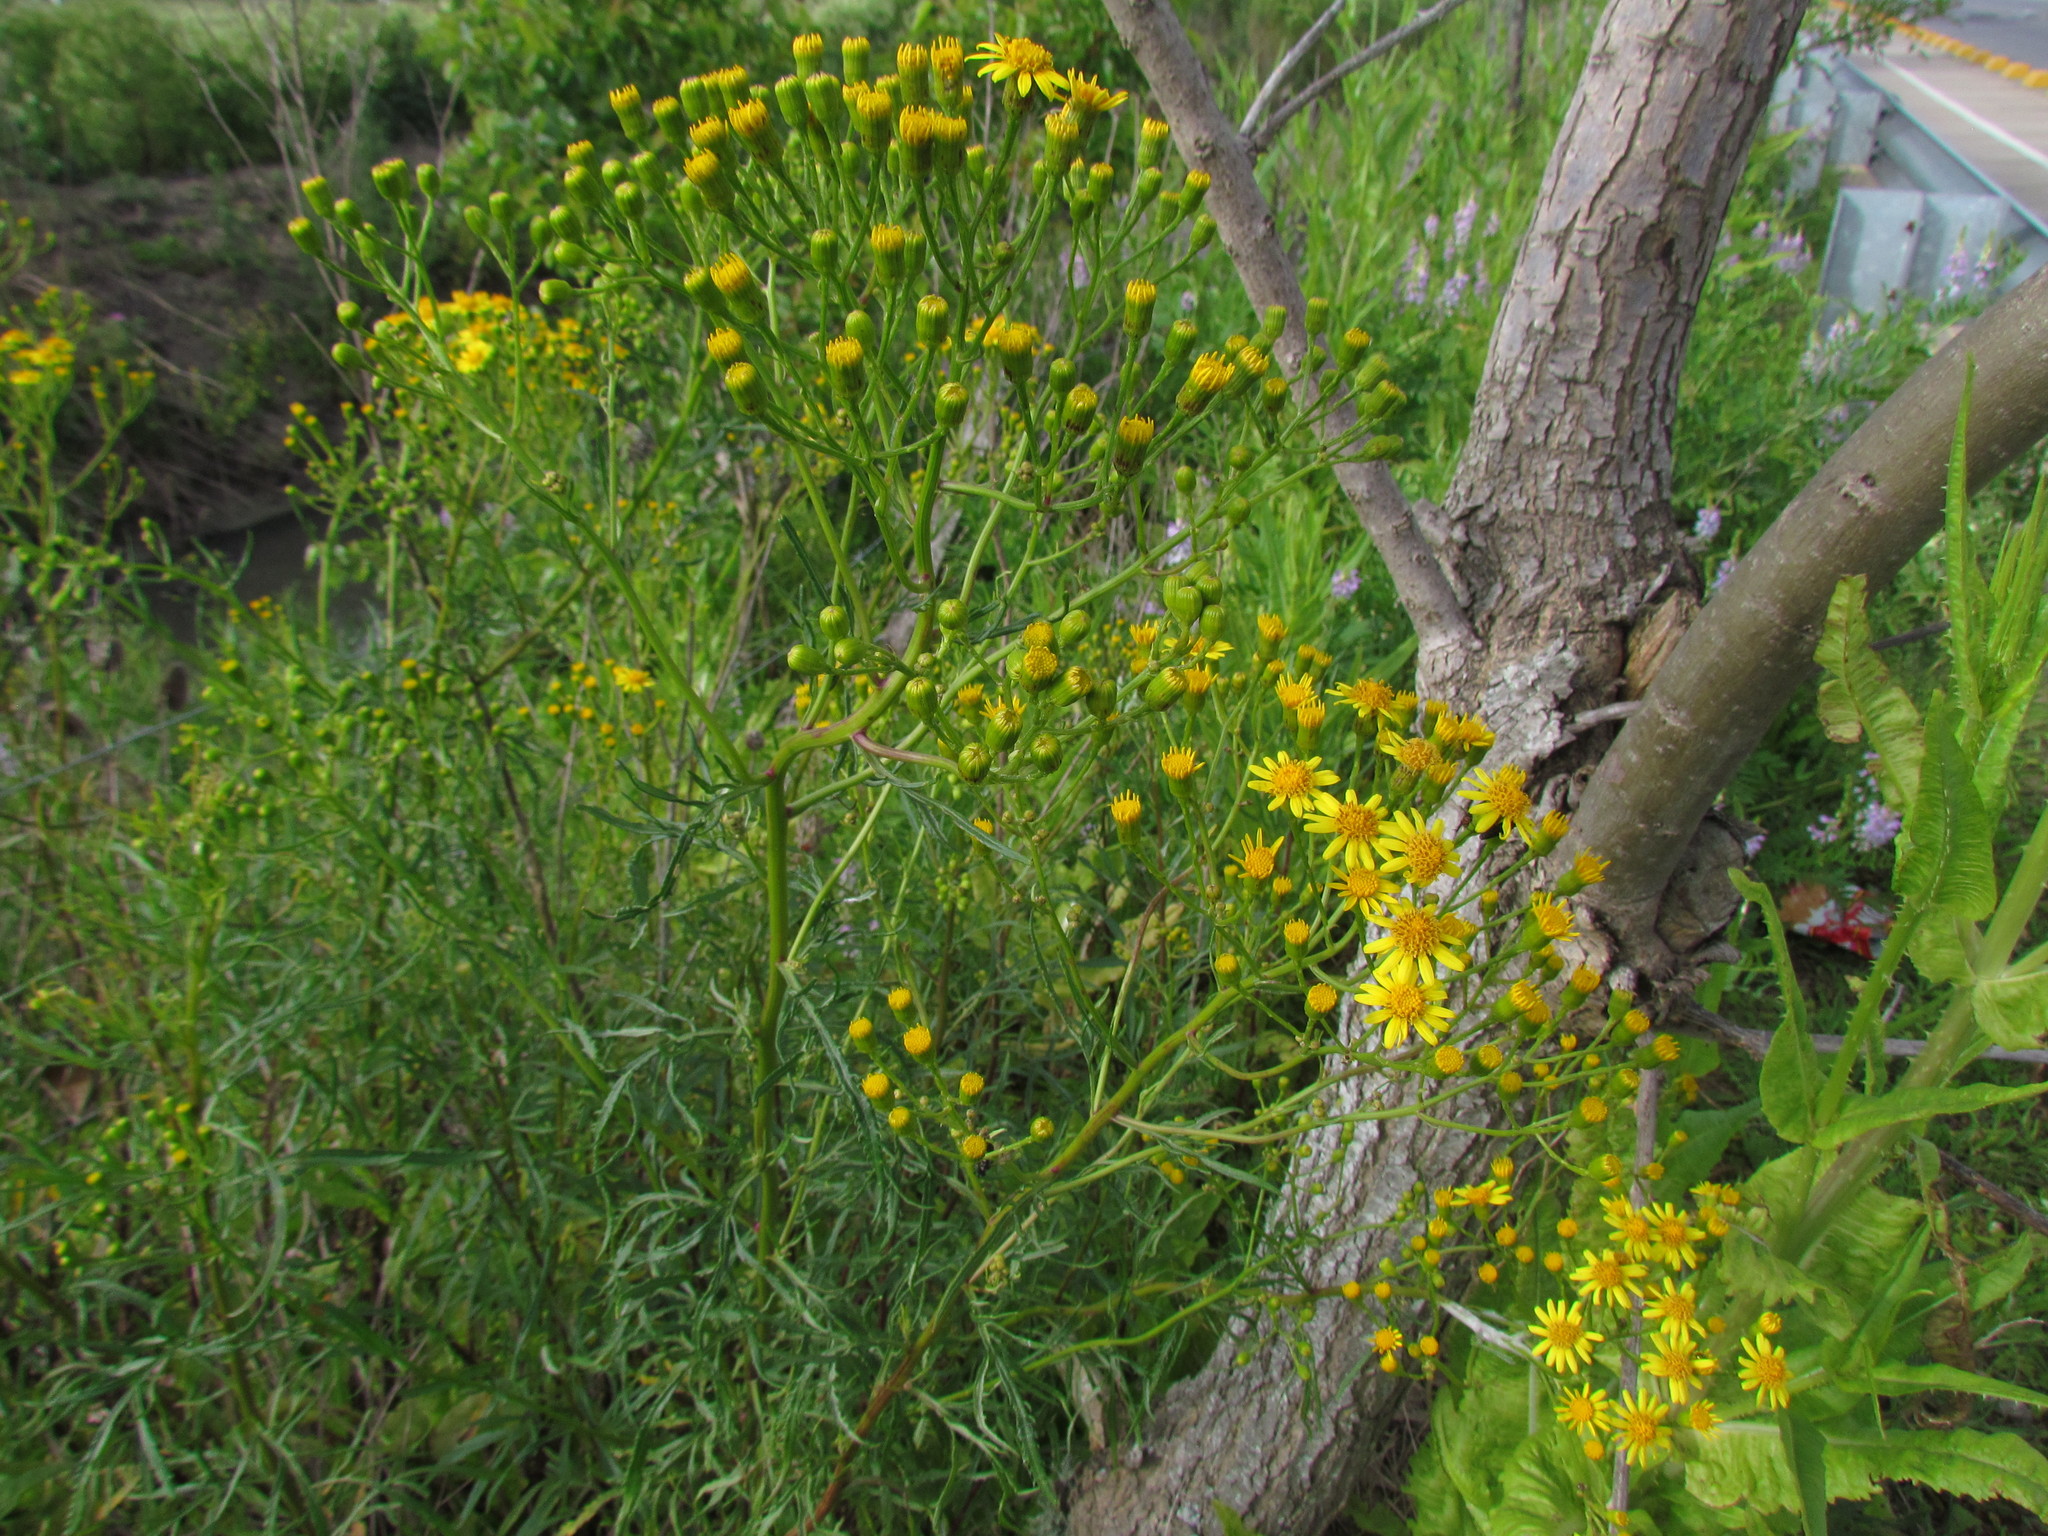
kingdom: Plantae
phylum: Tracheophyta
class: Magnoliopsida
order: Asterales
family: Asteraceae
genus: Senecio
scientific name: Senecio brasiliensis
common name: Hemp-leaf ragwort
